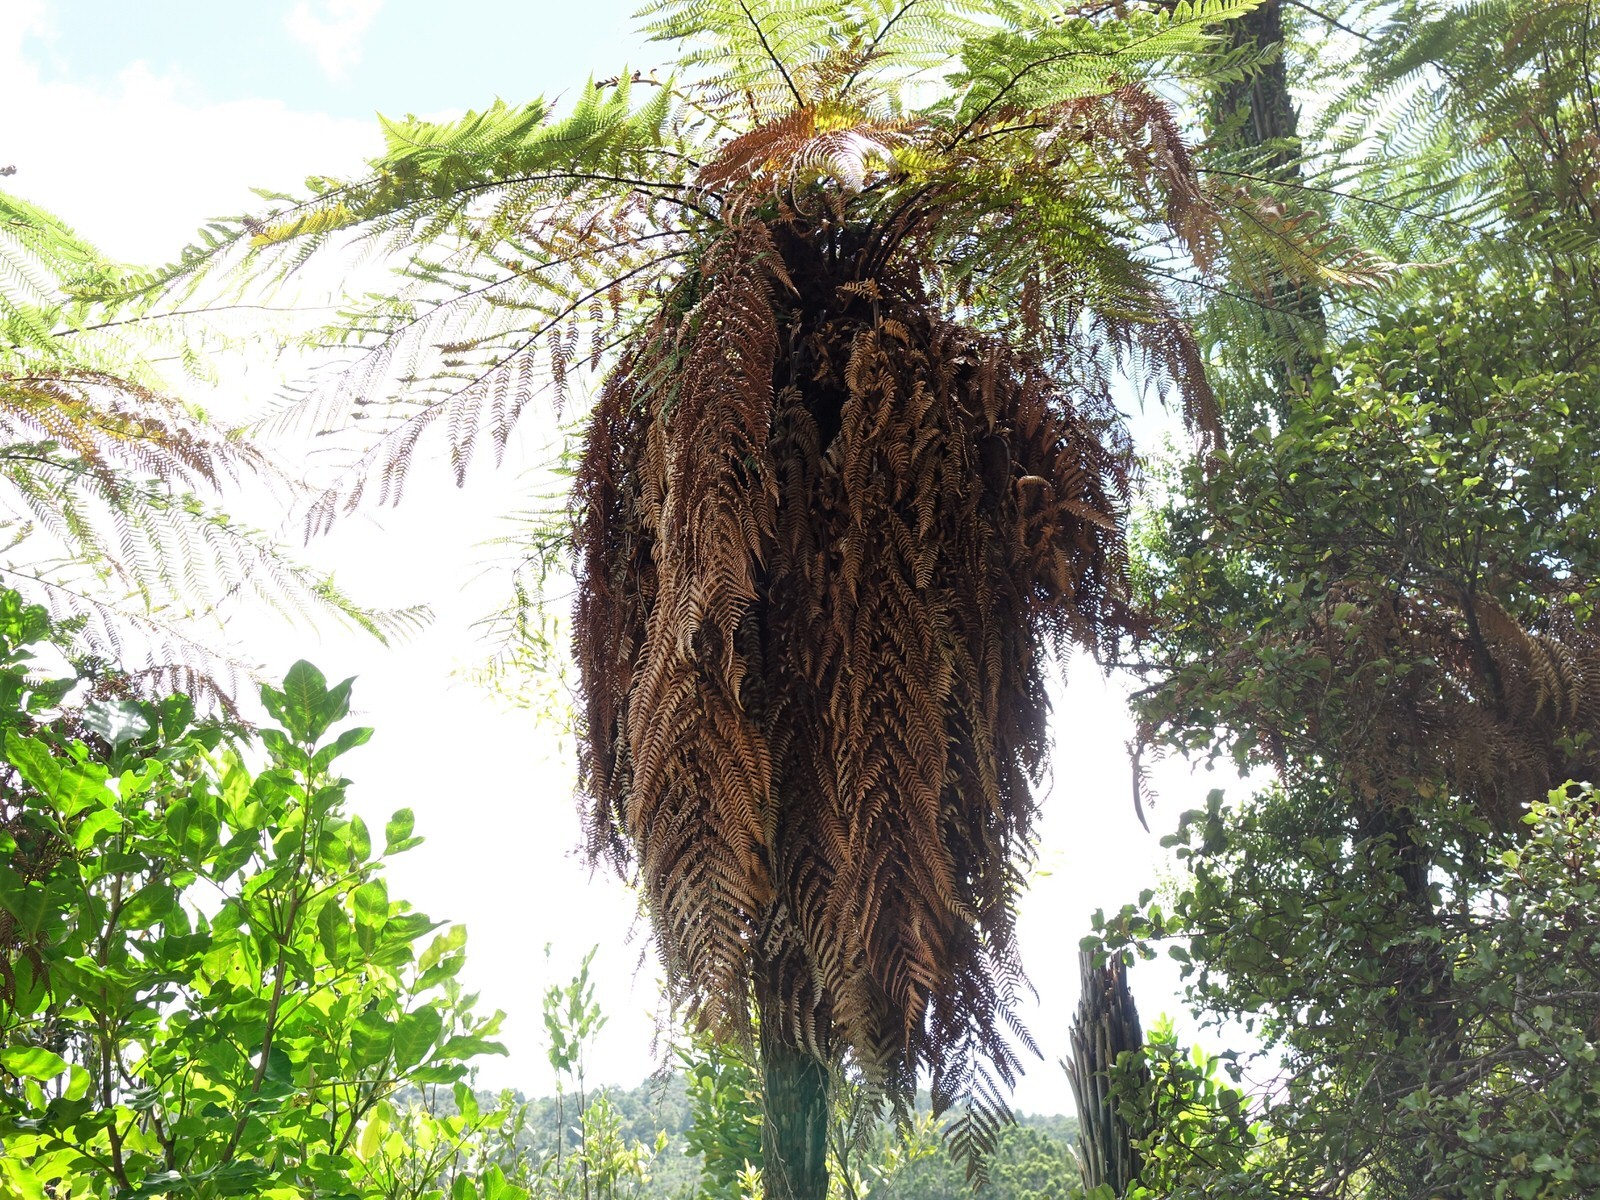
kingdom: Plantae
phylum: Tracheophyta
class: Polypodiopsida
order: Cyatheales
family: Dicksoniaceae
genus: Dicksonia
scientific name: Dicksonia squarrosa
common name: Hard treefern
